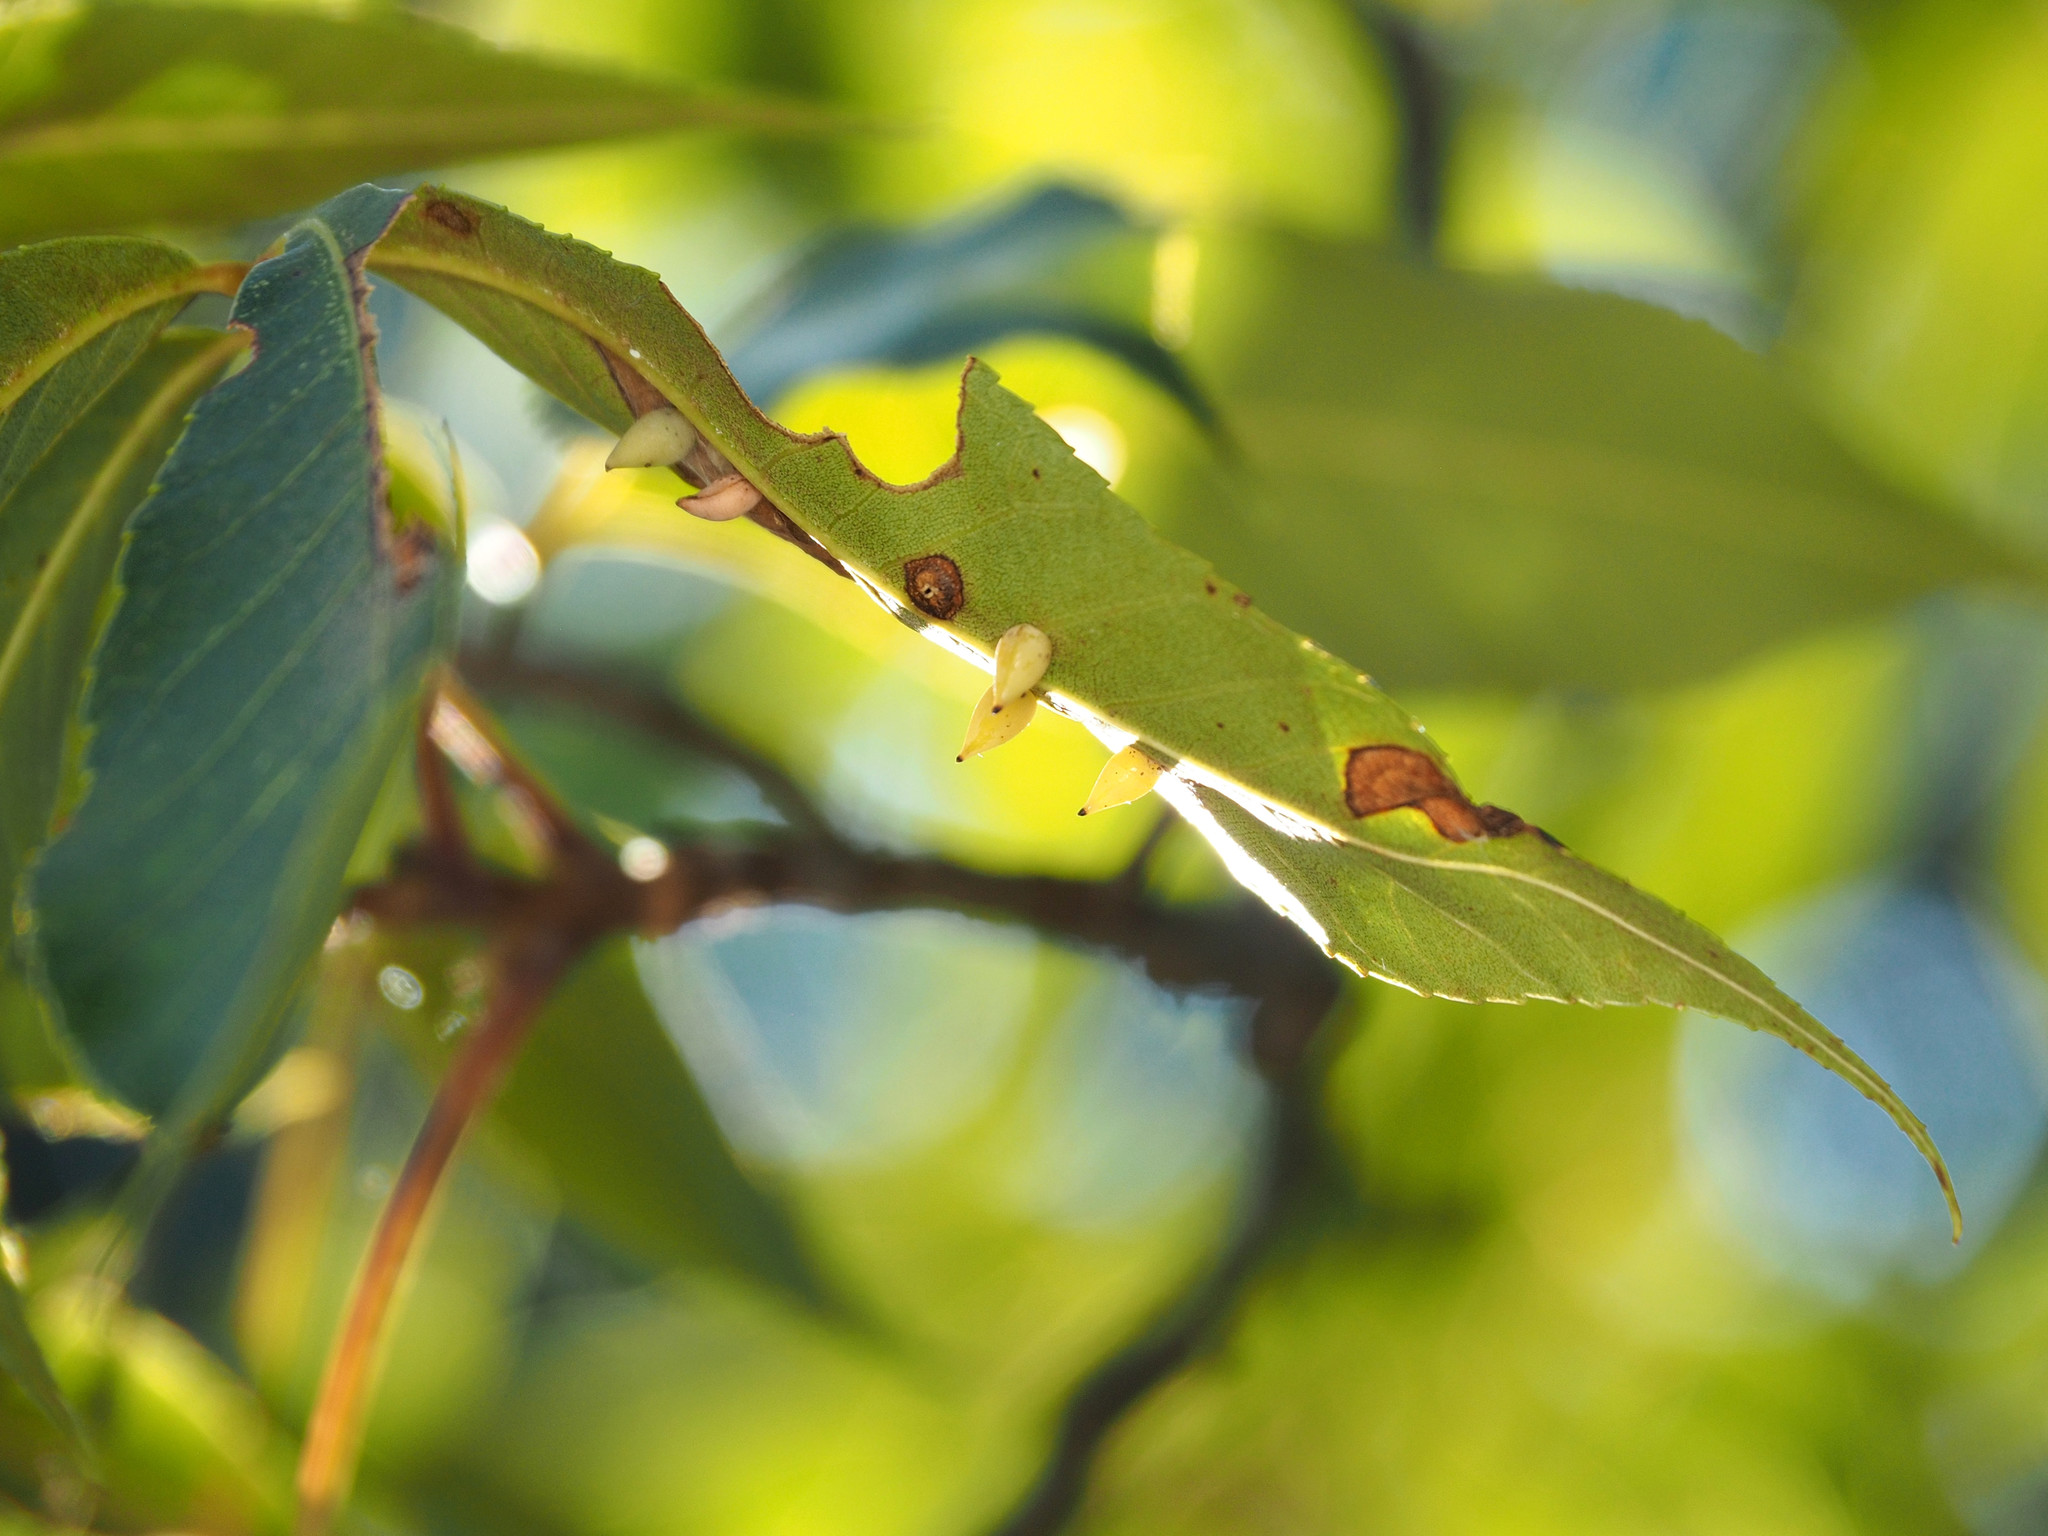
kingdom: Animalia
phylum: Arthropoda
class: Insecta
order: Diptera
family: Cecidomyiidae
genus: Caryomyia
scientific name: Caryomyia caryaecola
